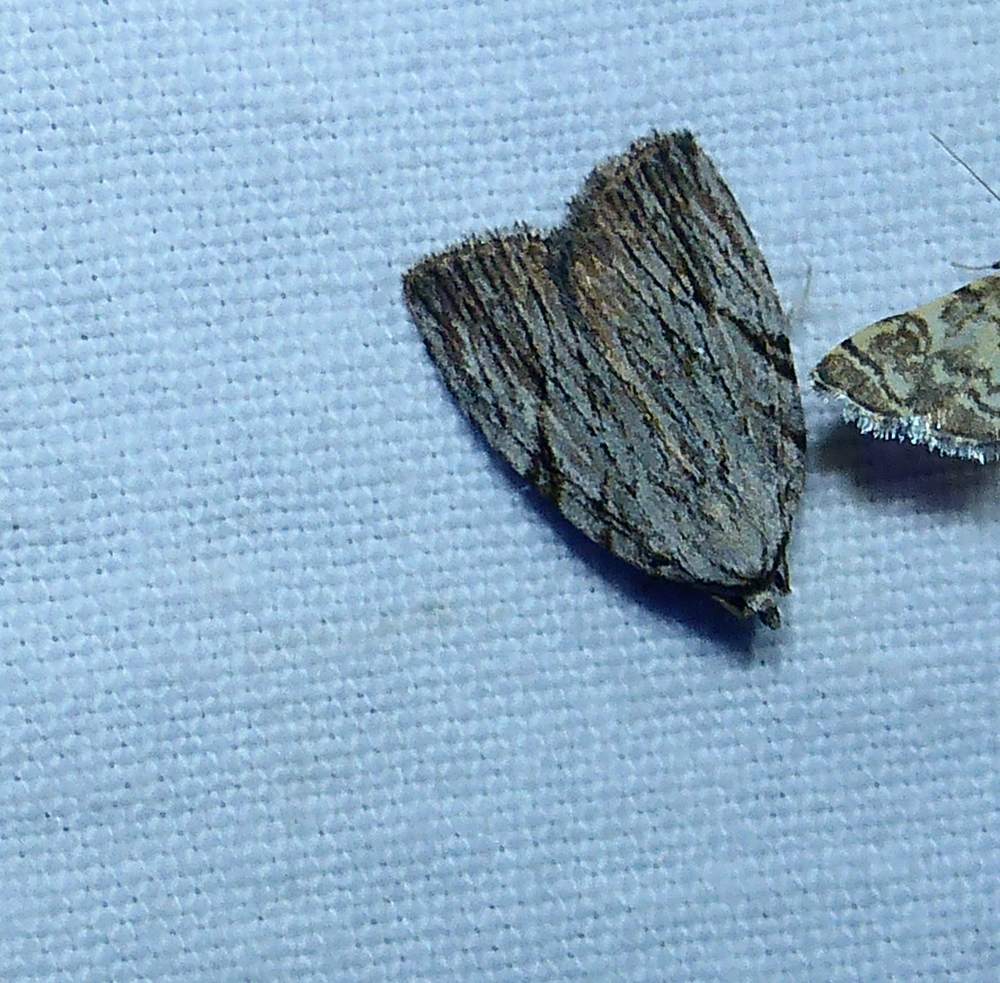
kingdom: Animalia
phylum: Arthropoda
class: Insecta
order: Lepidoptera
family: Noctuidae
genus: Balsa
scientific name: Balsa tristrigella
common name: Three-lined balsa moth
